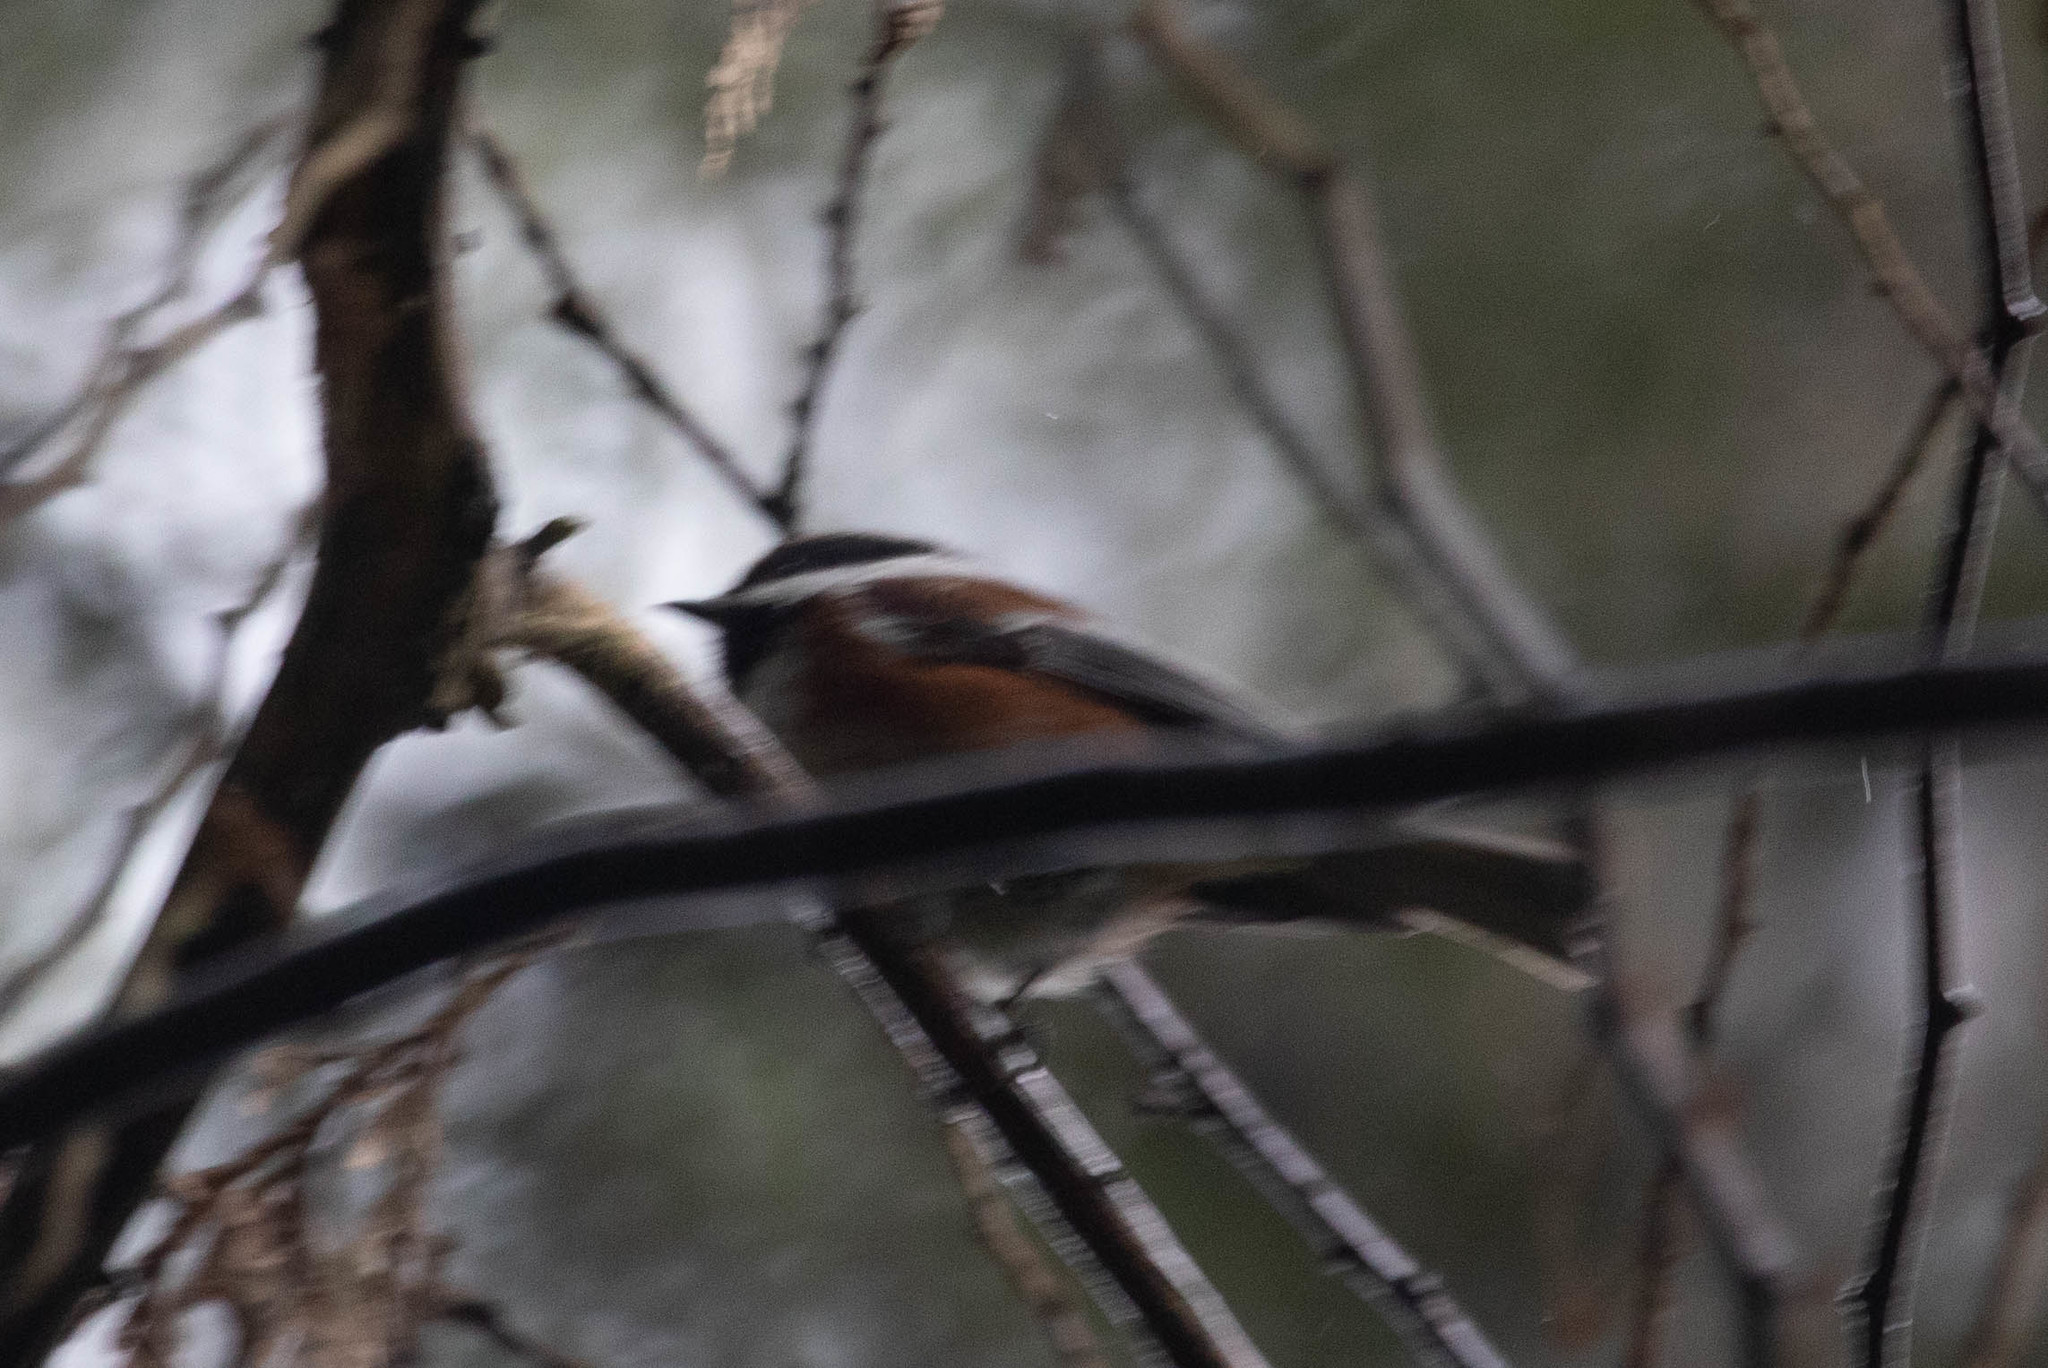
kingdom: Animalia
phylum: Chordata
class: Aves
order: Passeriformes
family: Paridae
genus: Poecile
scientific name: Poecile rufescens
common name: Chestnut-backed chickadee
